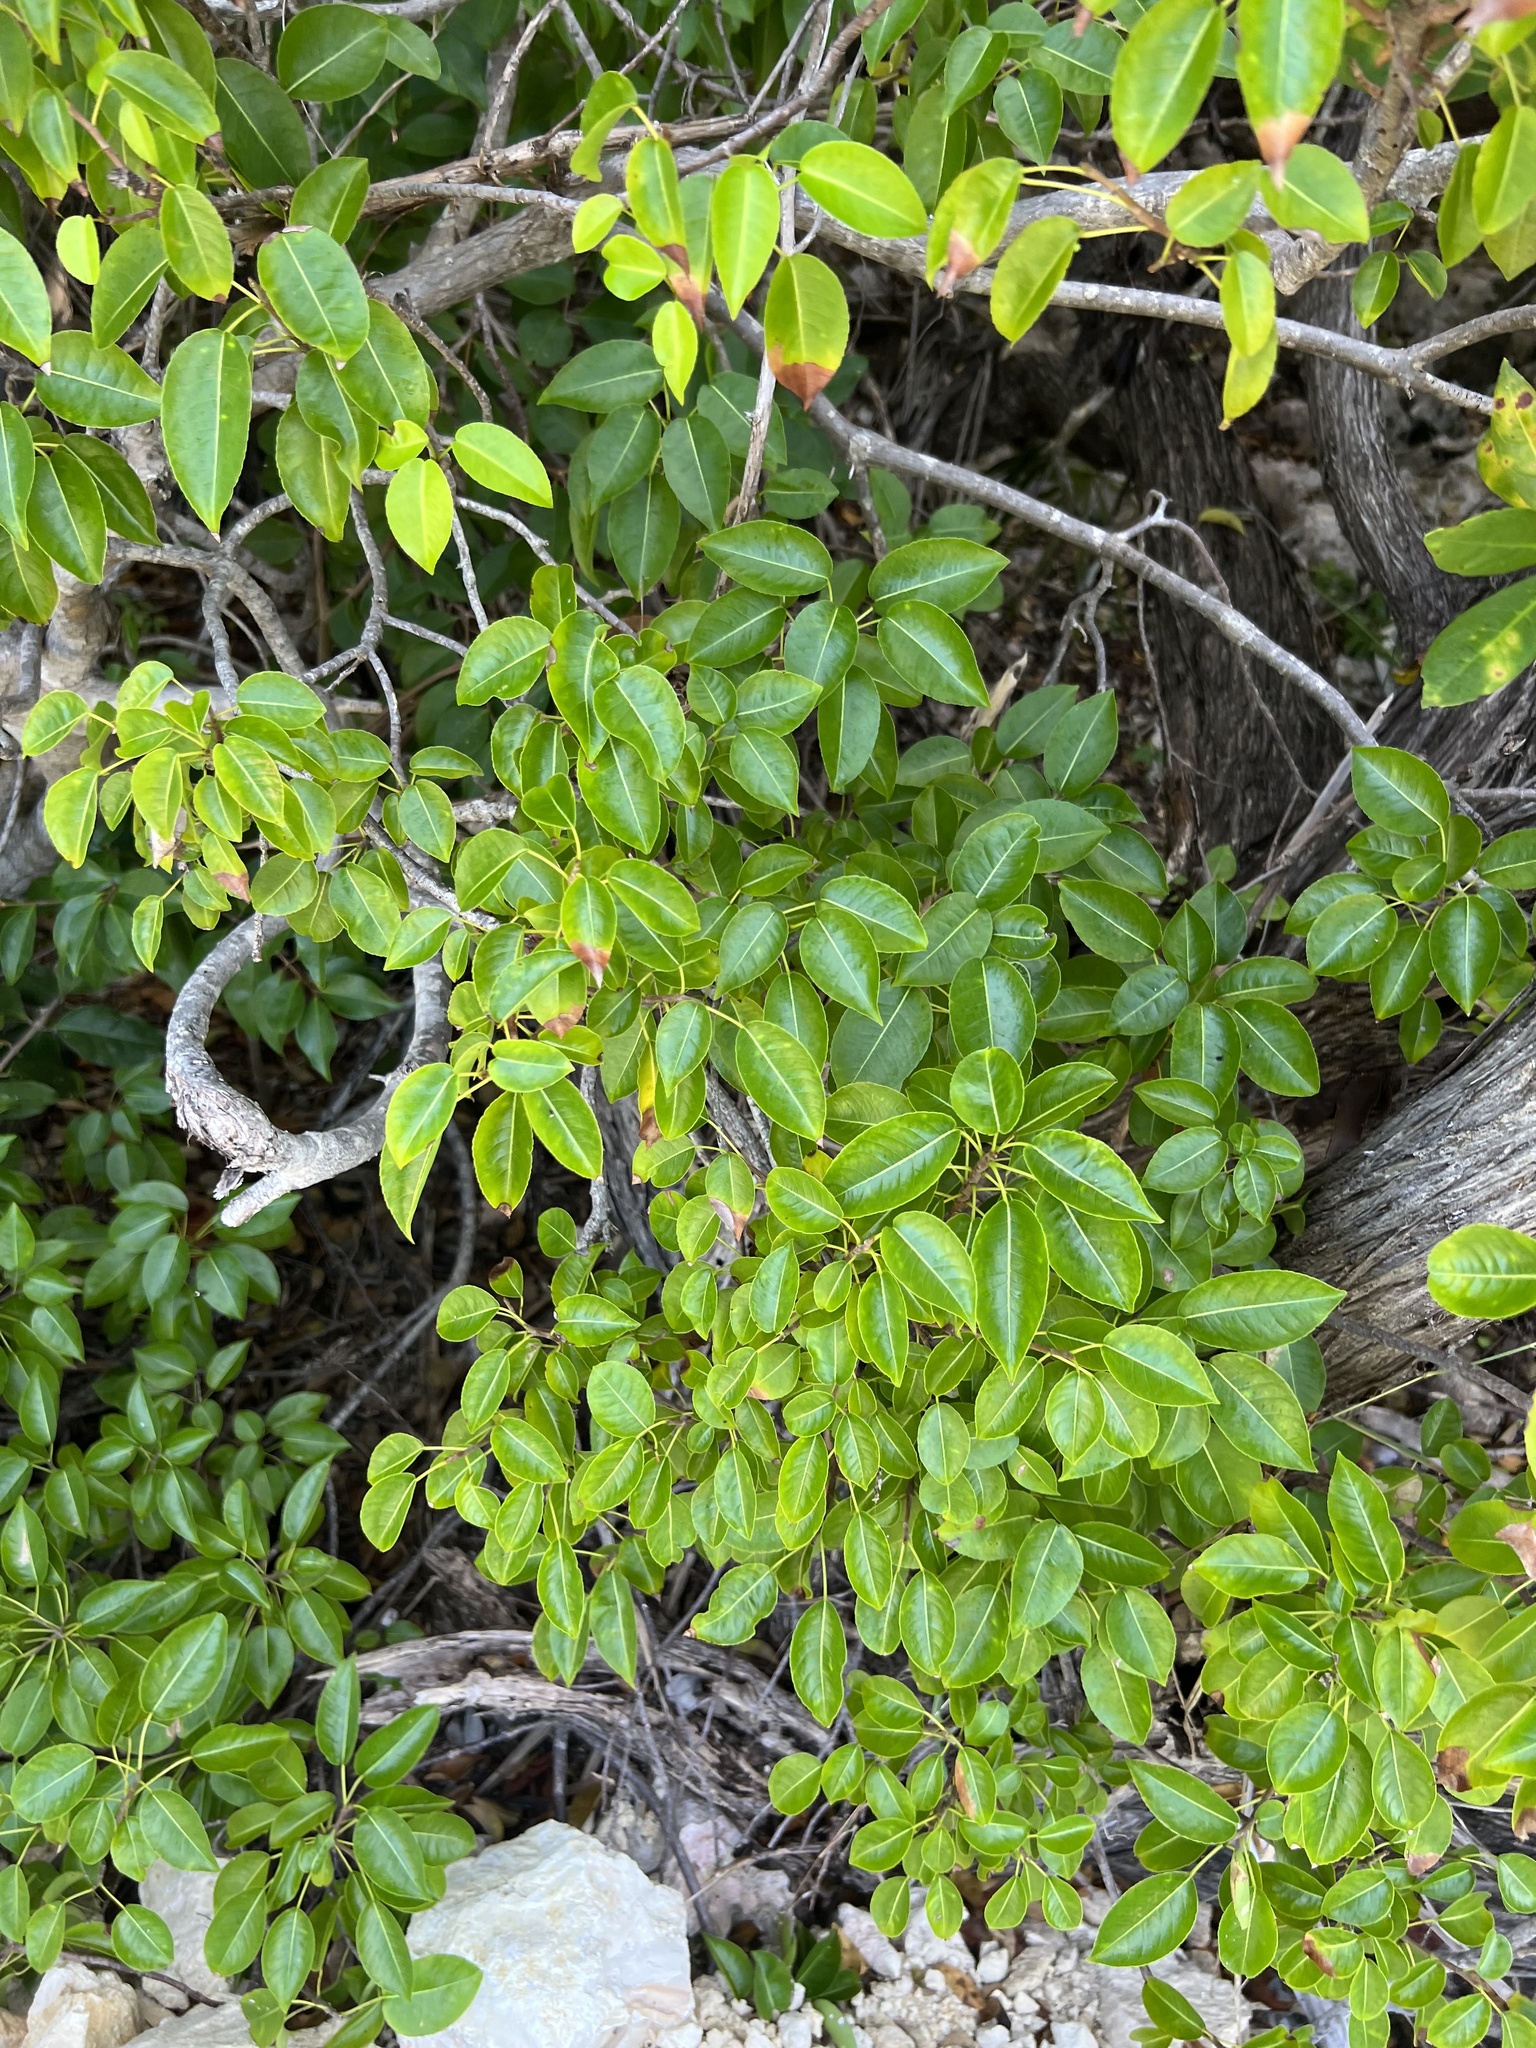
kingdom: Plantae
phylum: Tracheophyta
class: Magnoliopsida
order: Malpighiales
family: Euphorbiaceae
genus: Hippomane
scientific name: Hippomane mancinella
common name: Manchineel
